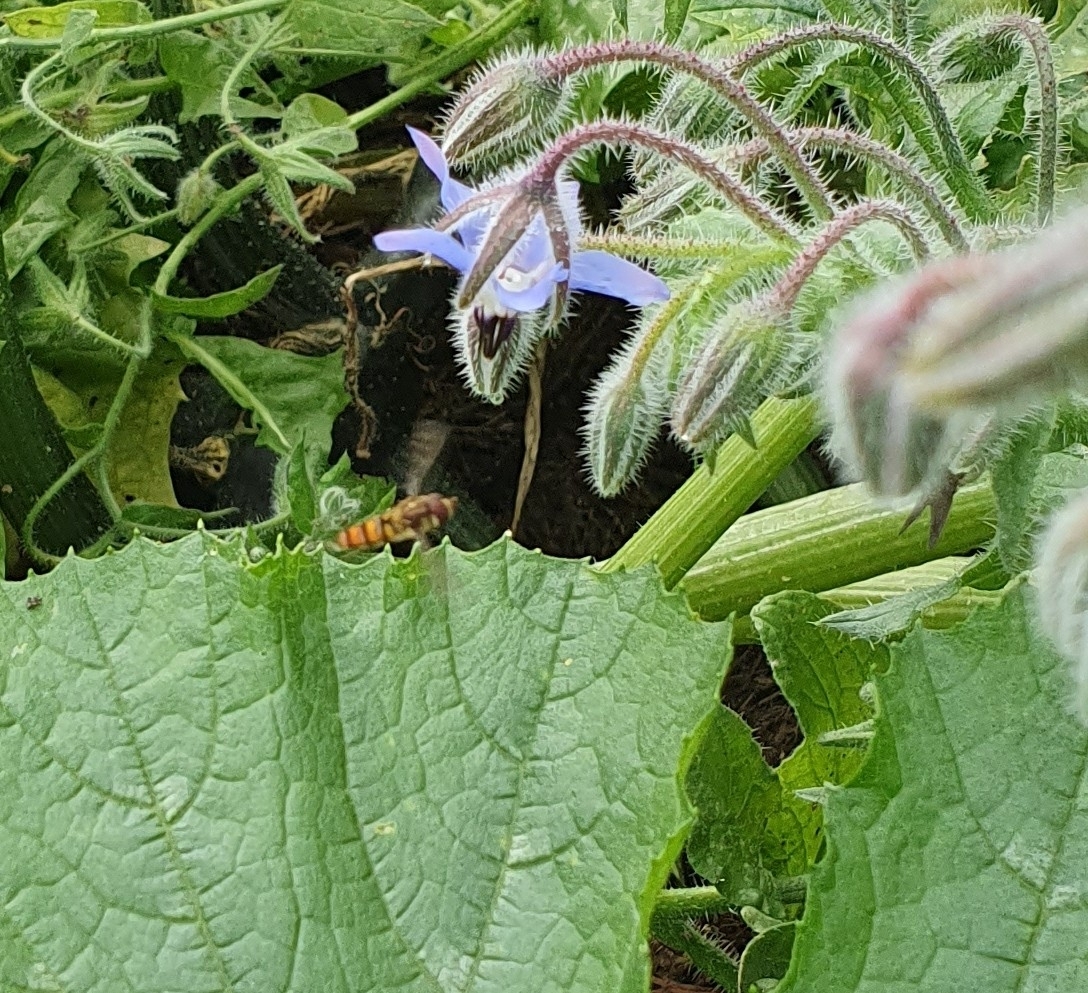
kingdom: Animalia
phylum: Arthropoda
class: Insecta
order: Diptera
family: Syrphidae
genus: Episyrphus
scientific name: Episyrphus balteatus
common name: Marmalade hoverfly
